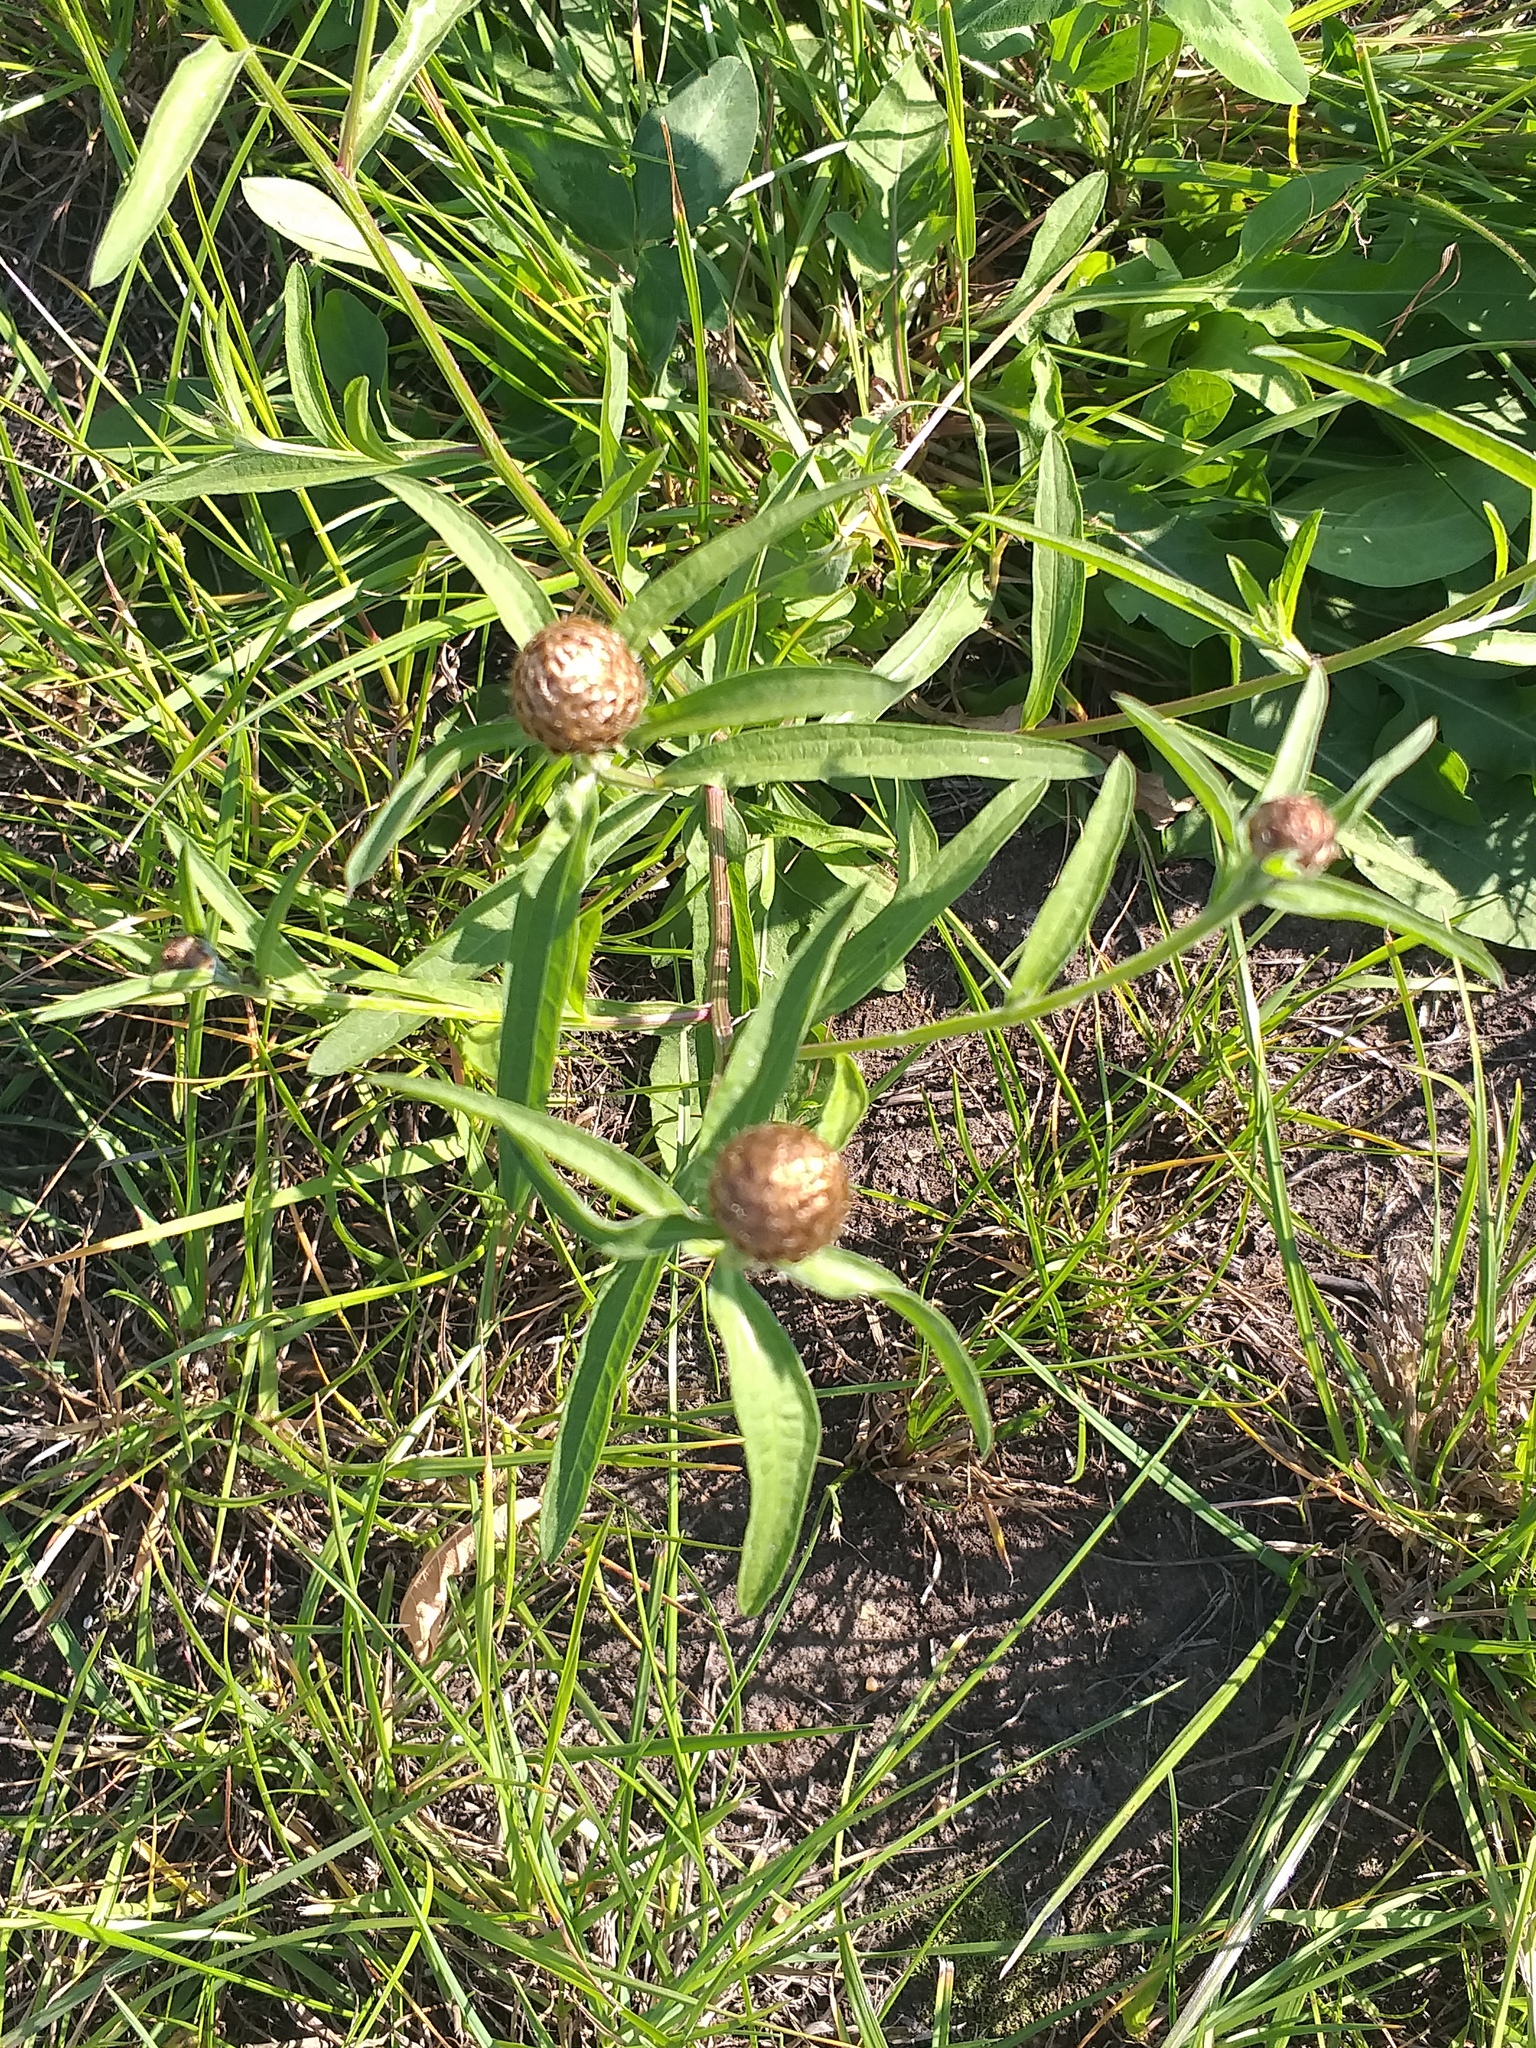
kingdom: Plantae
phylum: Tracheophyta
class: Magnoliopsida
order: Asterales
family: Asteraceae
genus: Centaurea
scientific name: Centaurea jacea
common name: Brown knapweed
